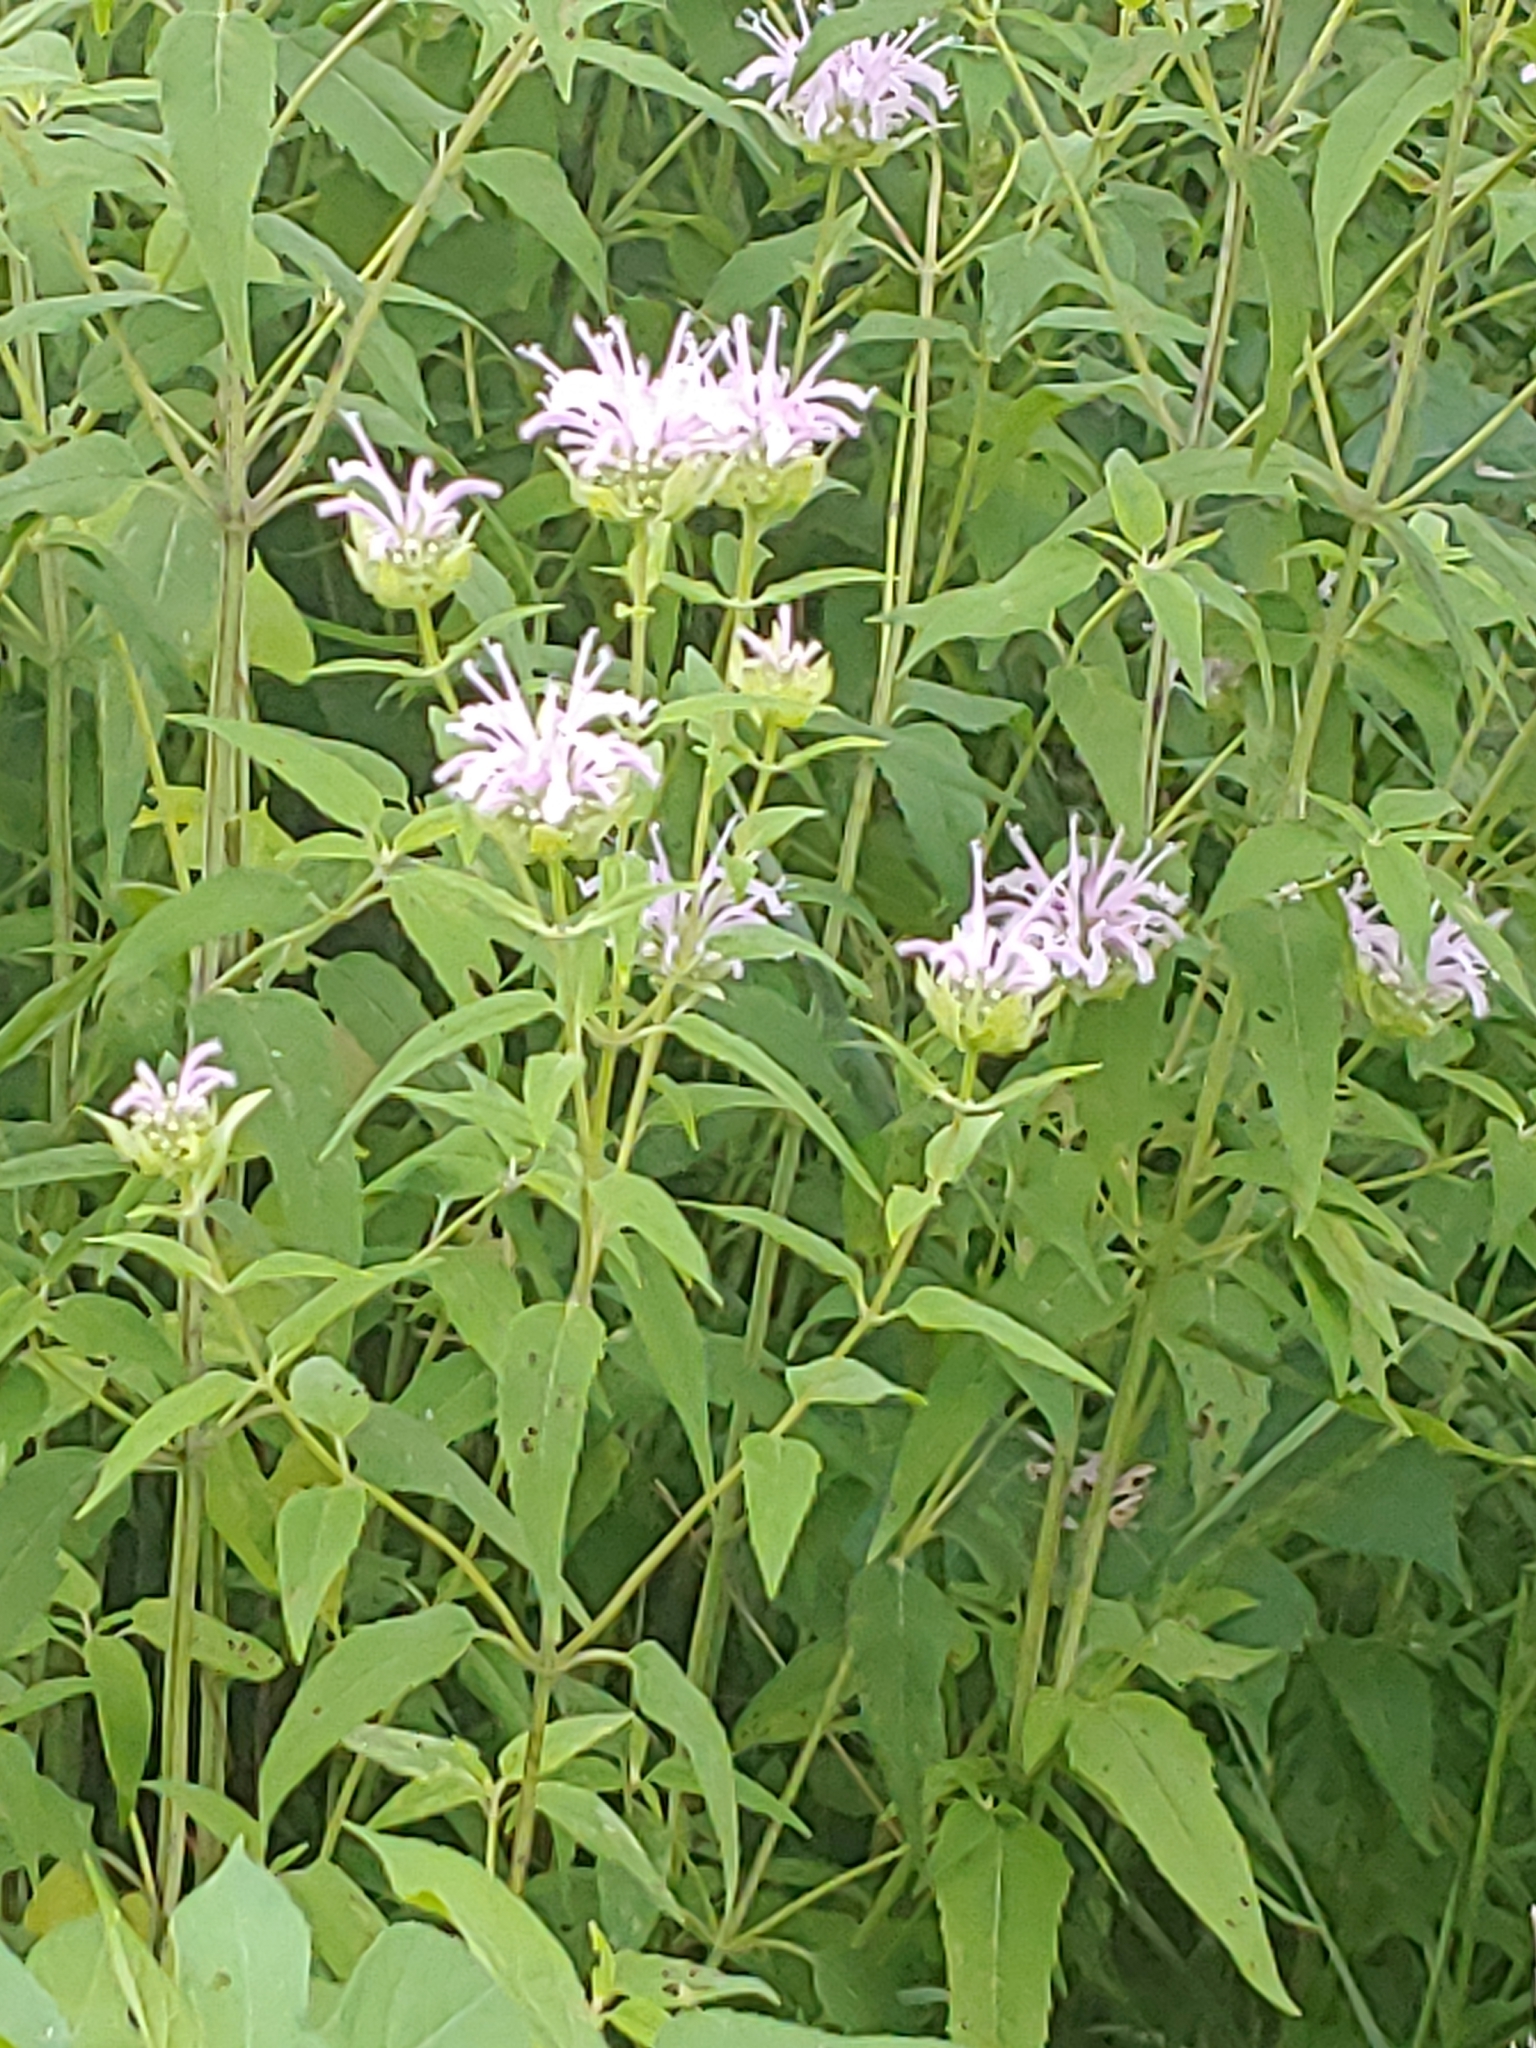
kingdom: Plantae
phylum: Tracheophyta
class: Magnoliopsida
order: Lamiales
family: Lamiaceae
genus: Monarda
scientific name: Monarda fistulosa
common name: Purple beebalm
